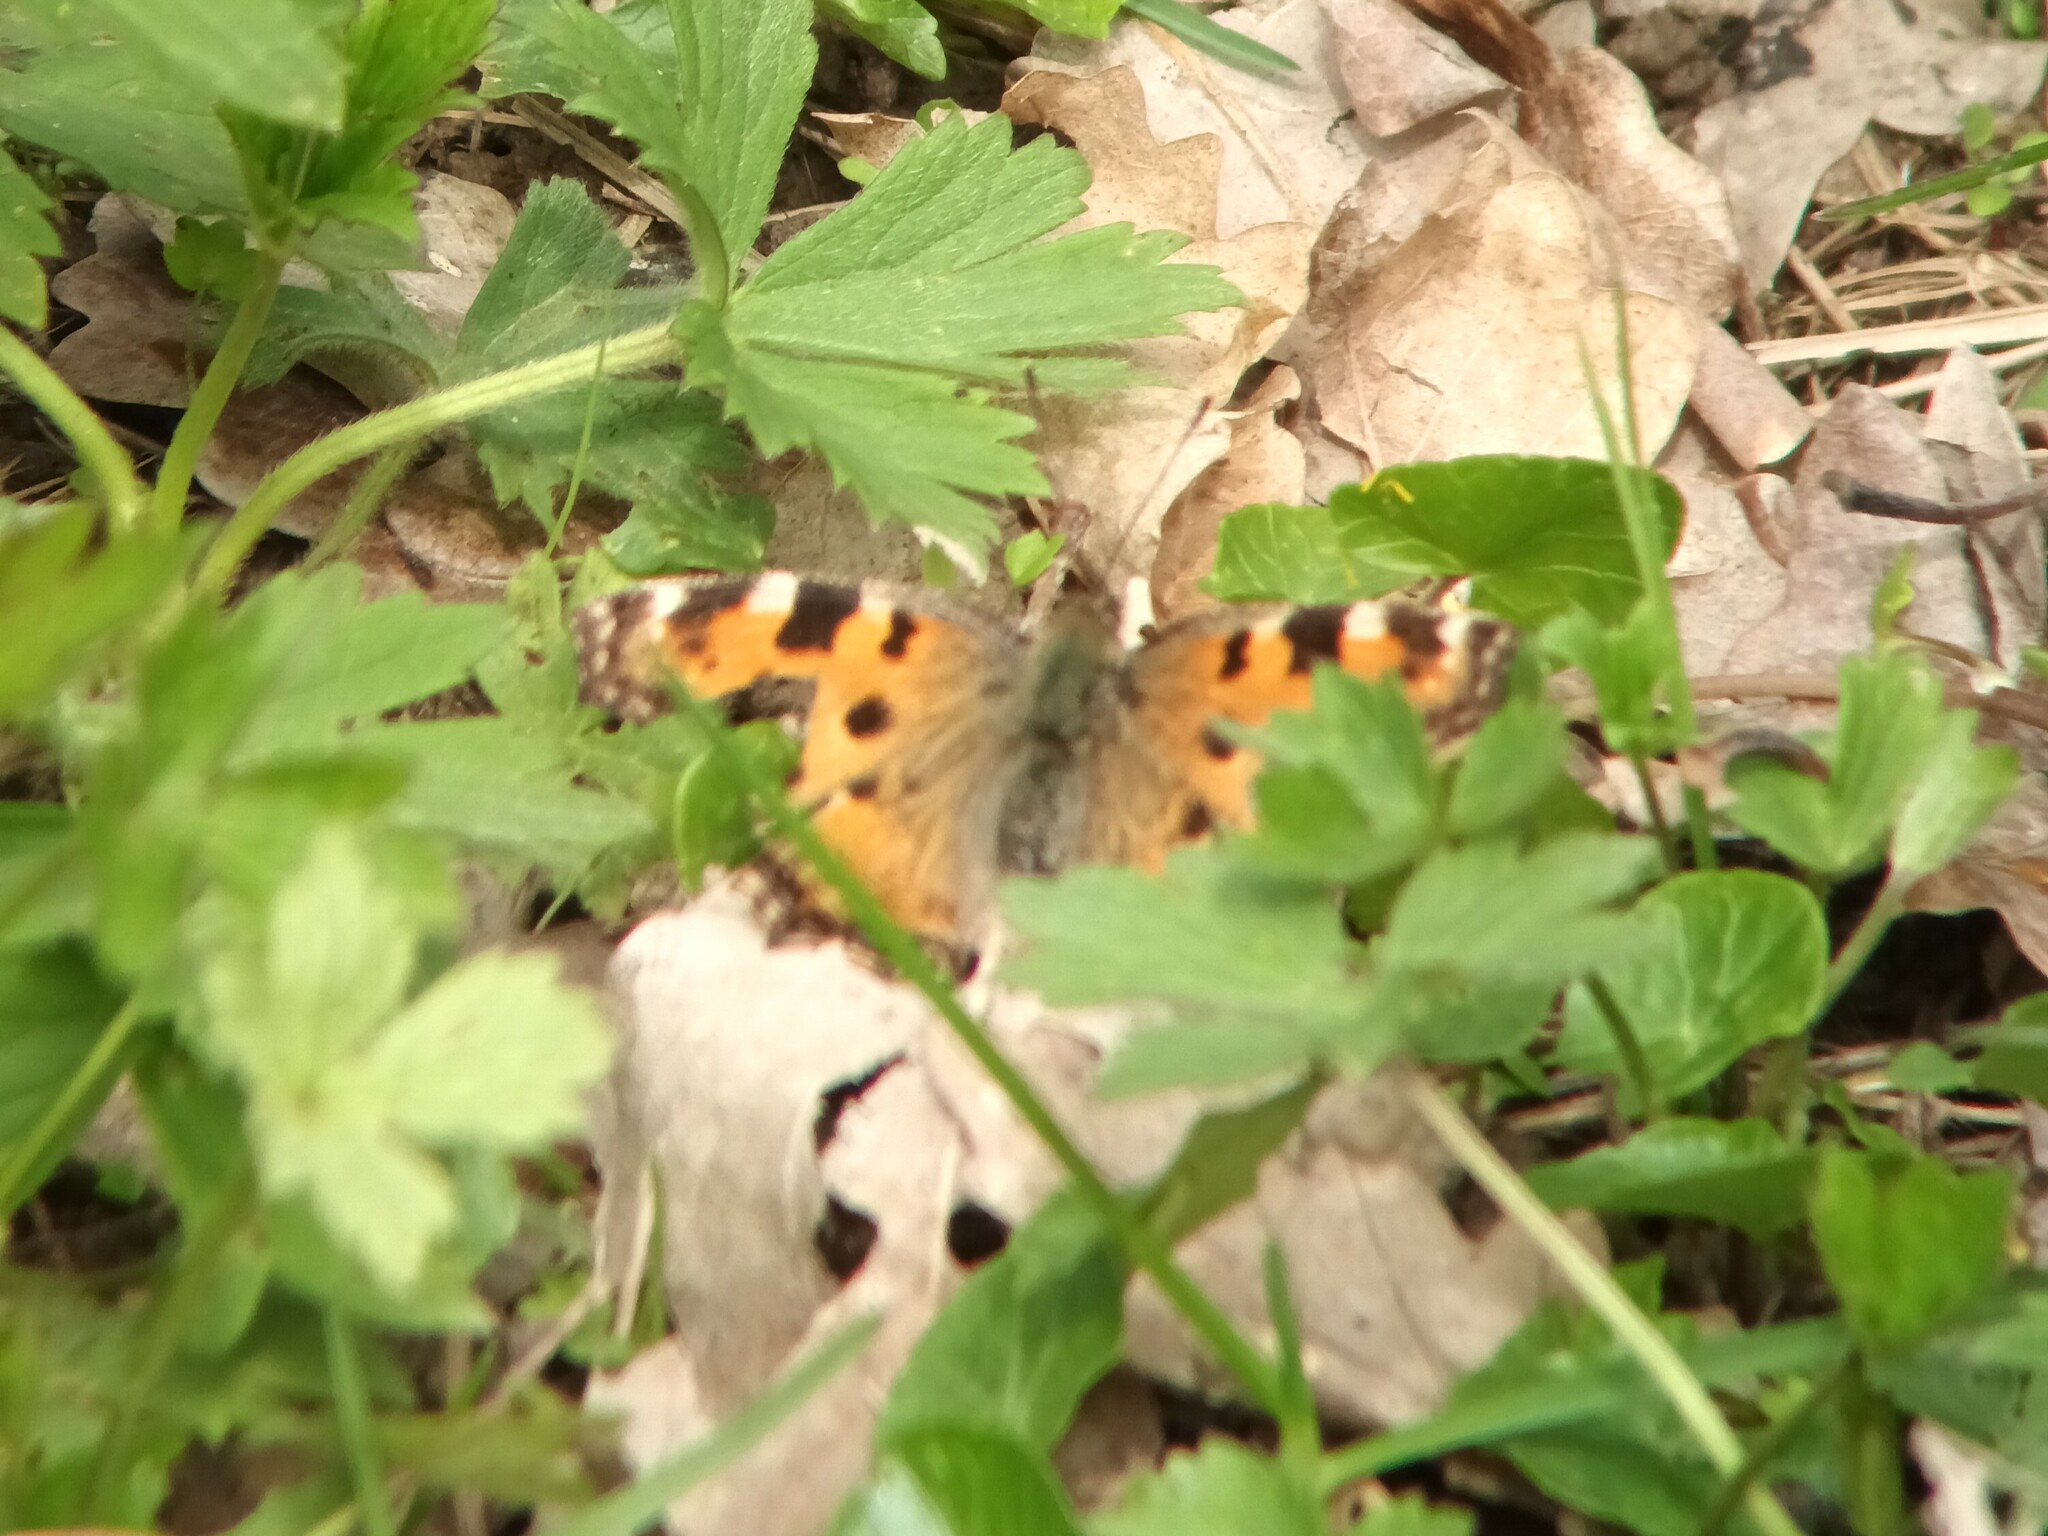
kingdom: Animalia
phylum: Arthropoda
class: Insecta
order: Lepidoptera
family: Nymphalidae
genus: Nymphalis
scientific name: Nymphalis polychloros
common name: Large tortoiseshell
